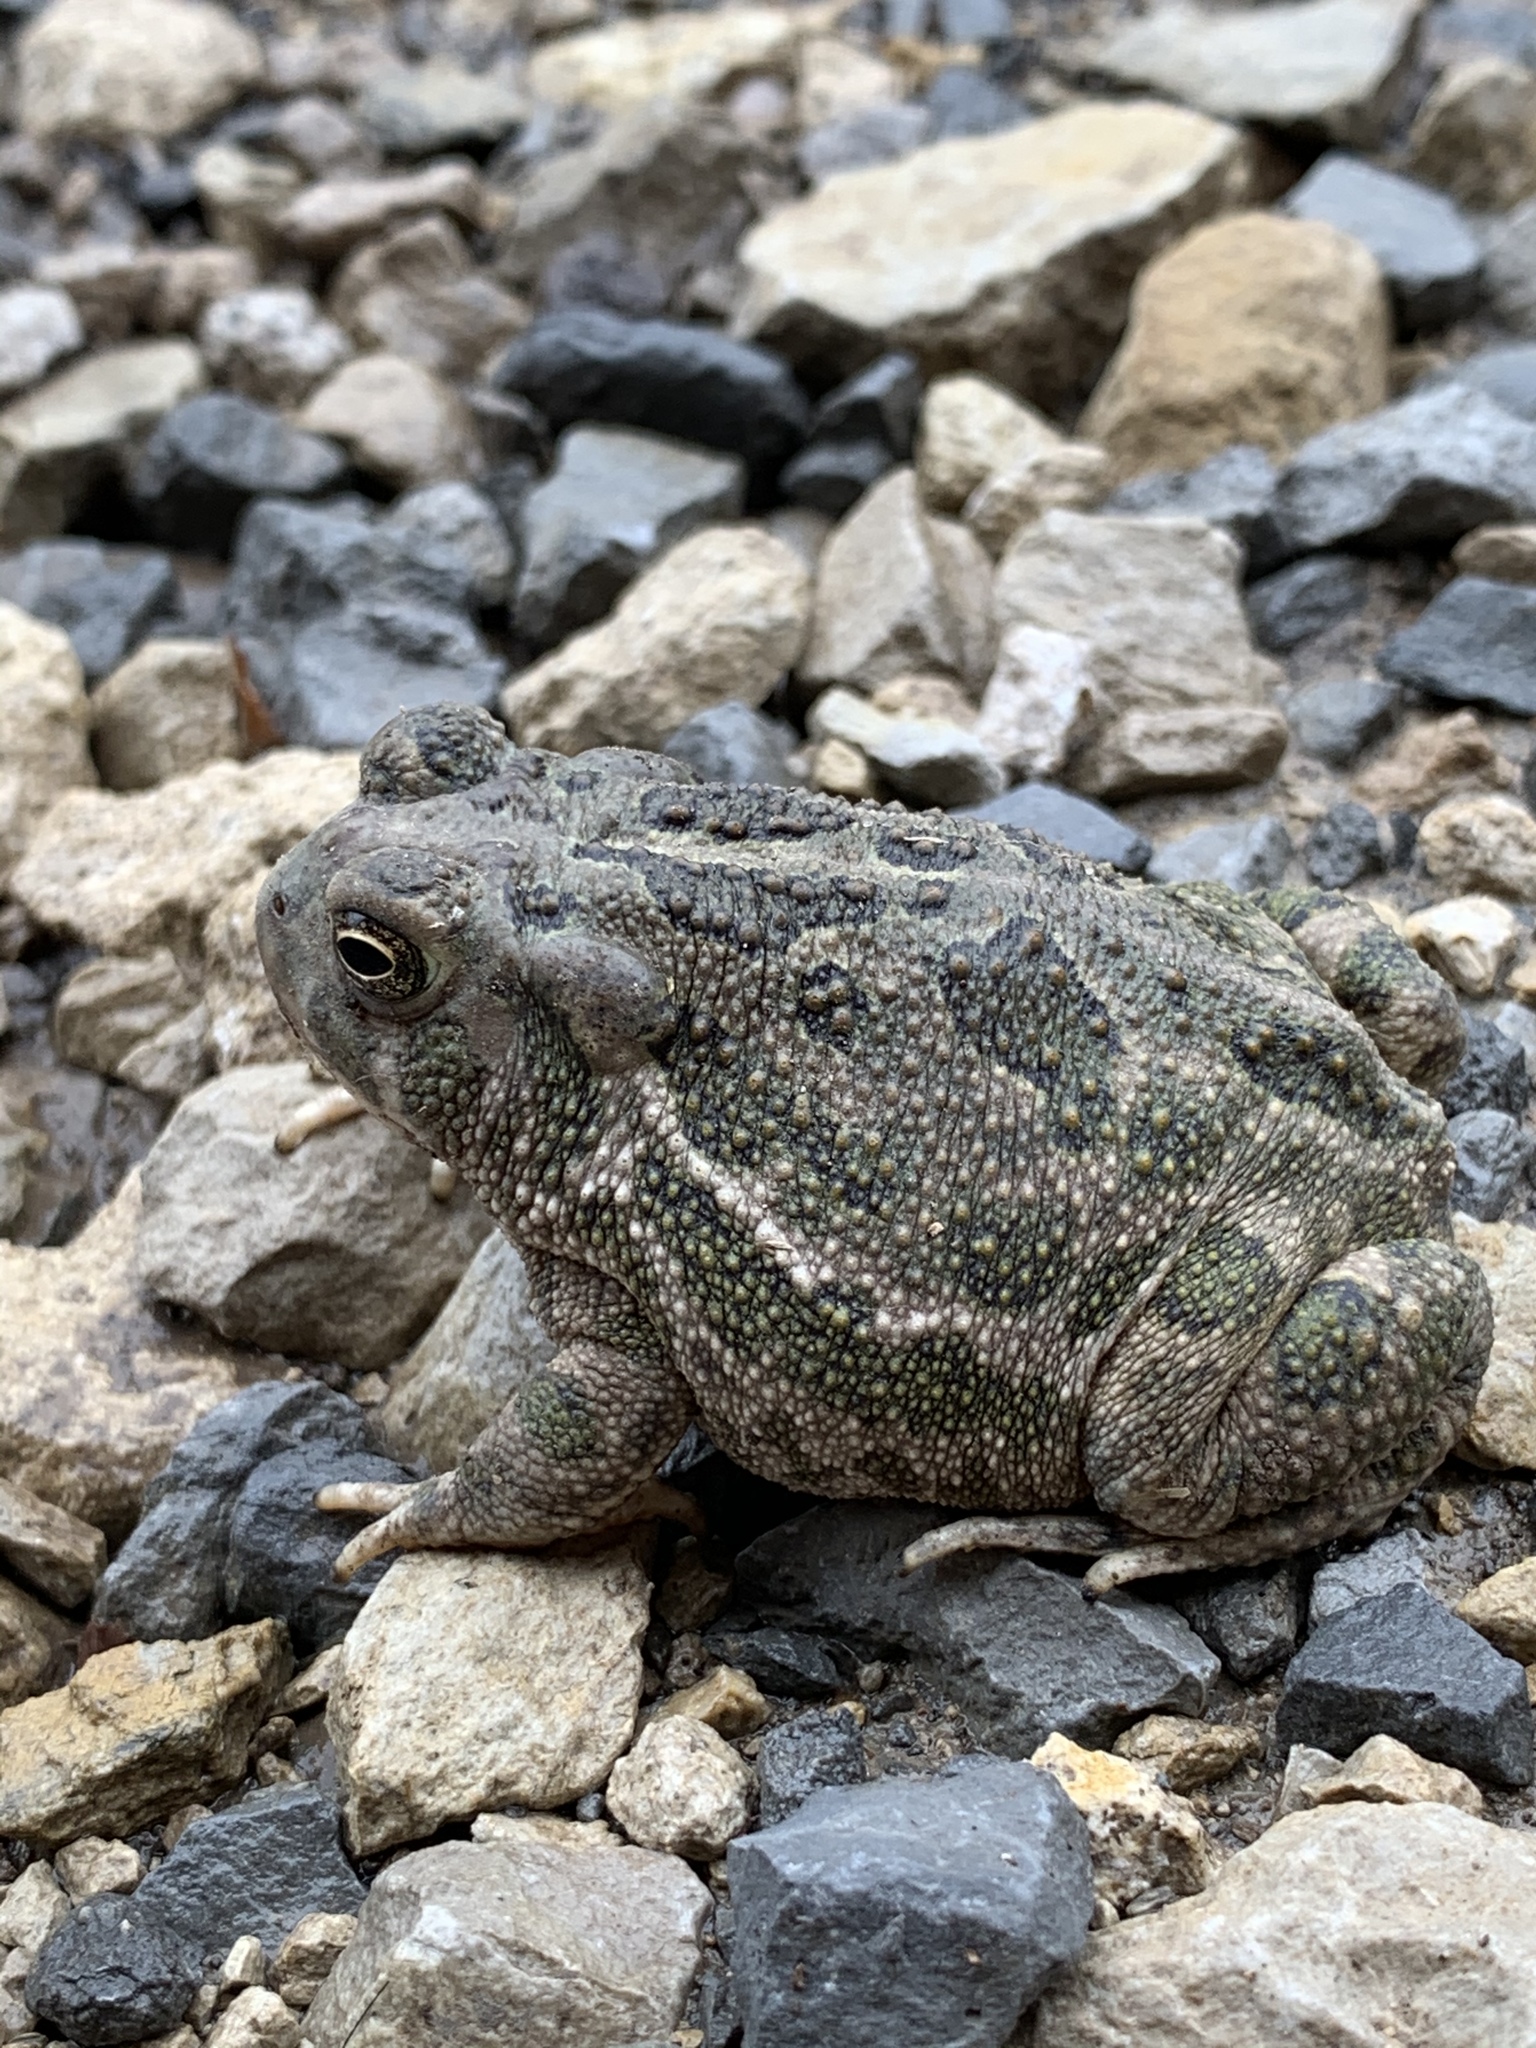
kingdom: Animalia
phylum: Chordata
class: Amphibia
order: Anura
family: Bufonidae
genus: Anaxyrus
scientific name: Anaxyrus cognatus
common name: Great plains toad
